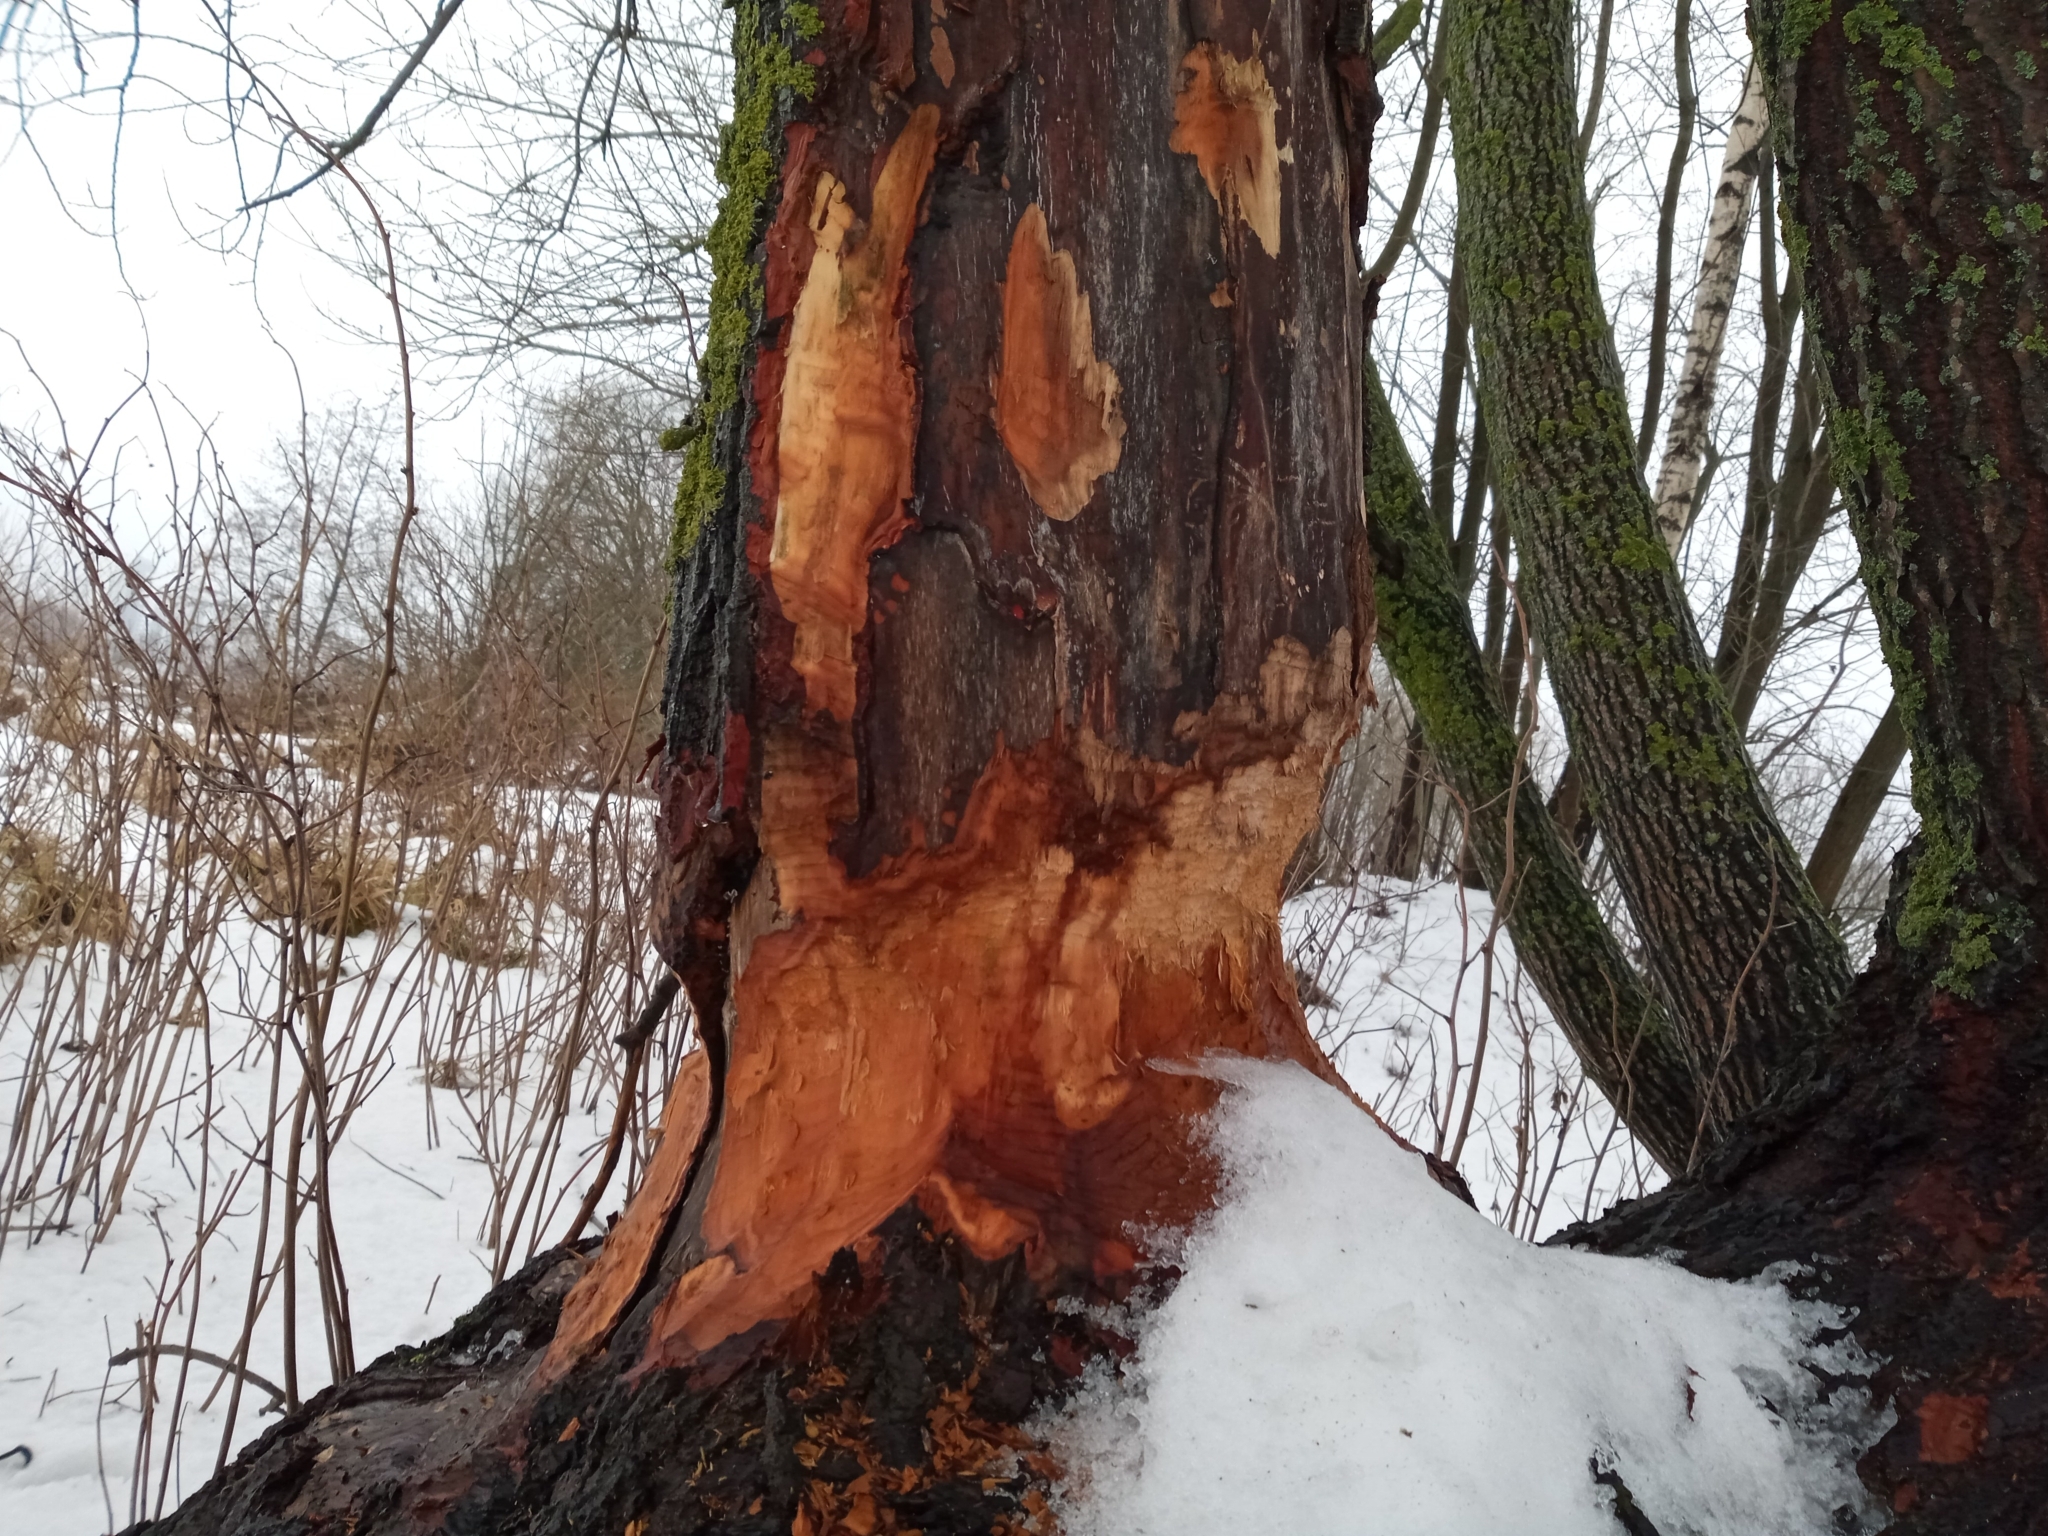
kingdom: Animalia
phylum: Chordata
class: Mammalia
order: Rodentia
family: Castoridae
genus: Castor
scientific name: Castor fiber
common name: Eurasian beaver
